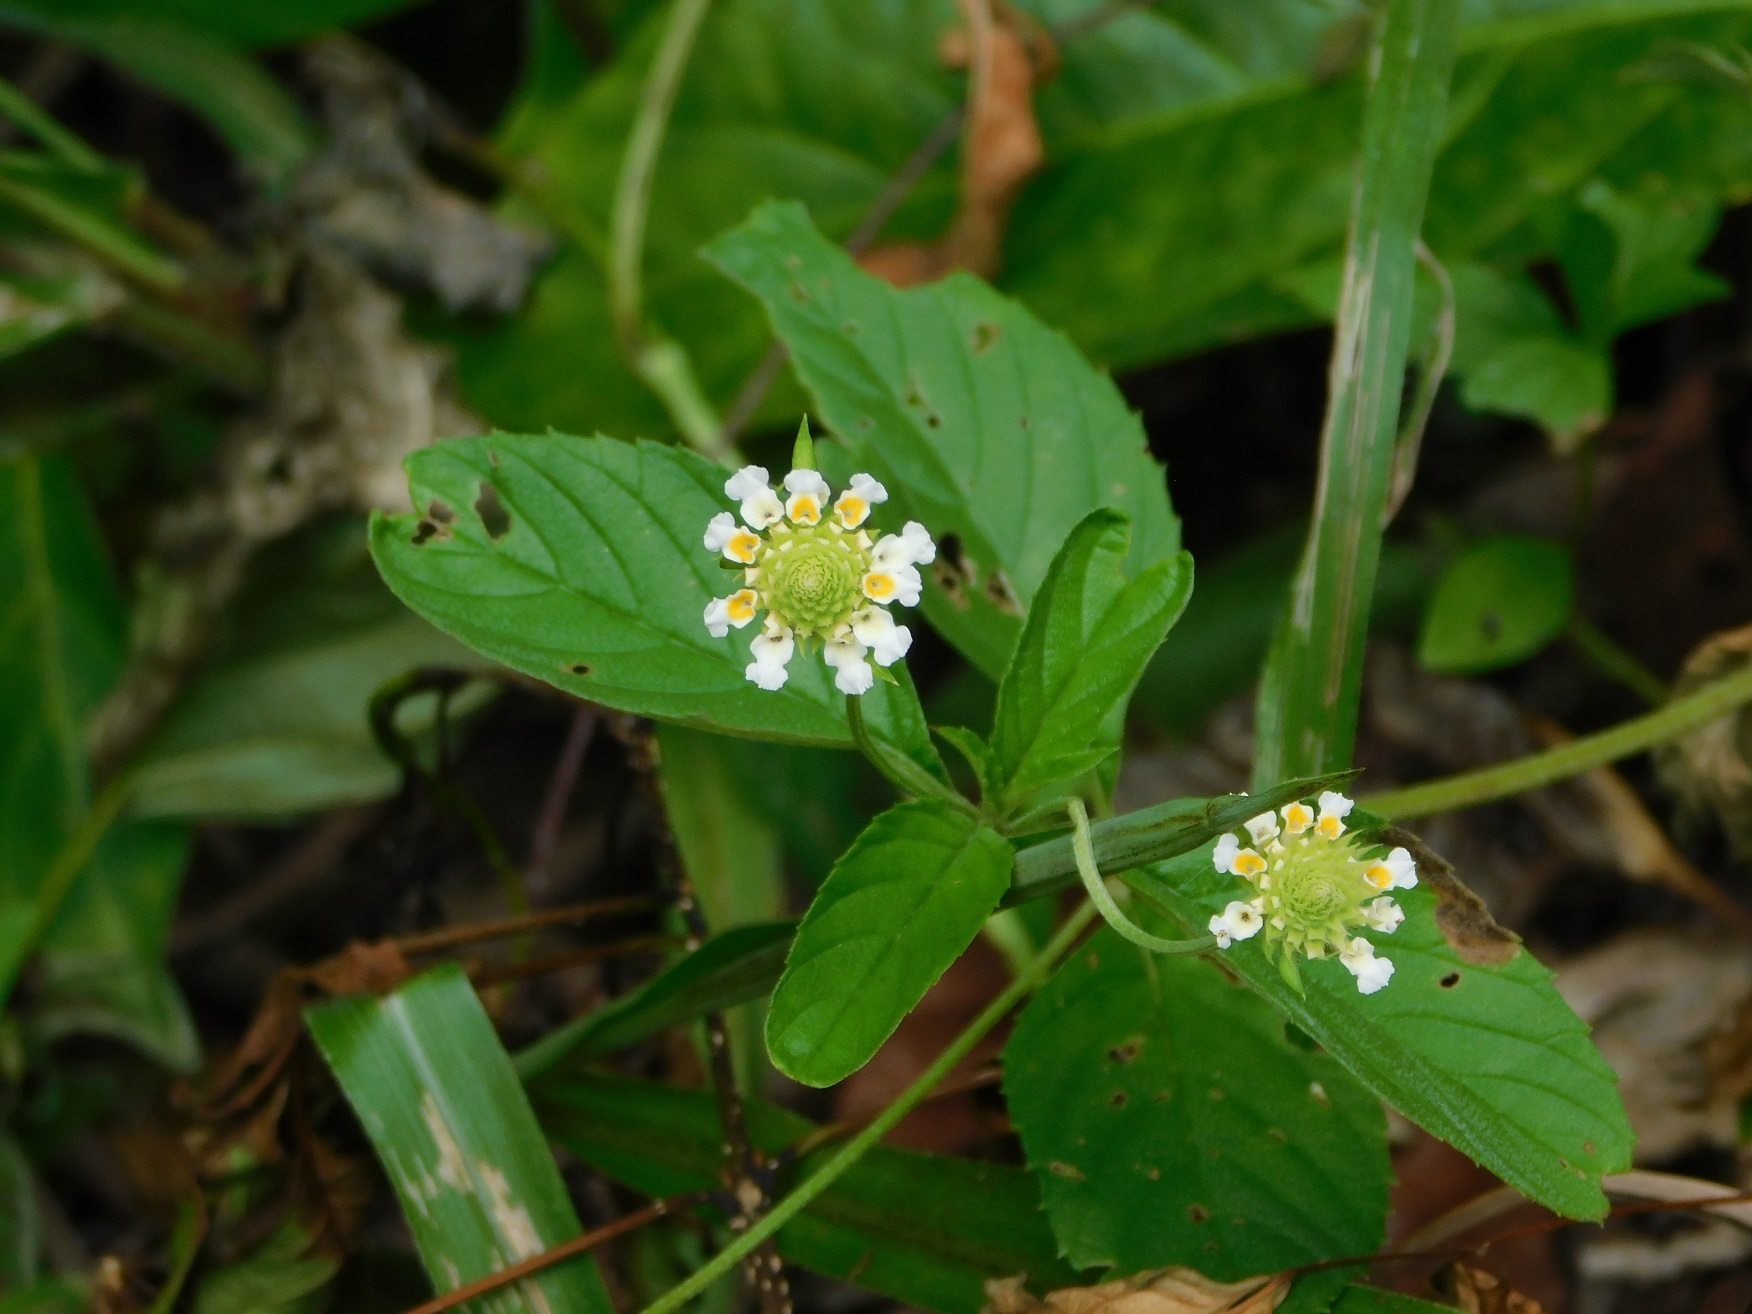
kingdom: Plantae
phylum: Tracheophyta
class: Magnoliopsida
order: Lamiales
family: Verbenaceae
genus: Lantana
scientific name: Lantana achyranthifolia
